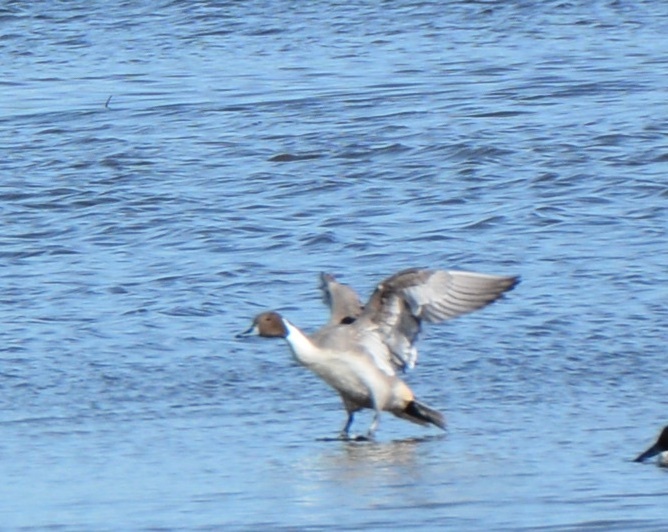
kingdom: Animalia
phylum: Chordata
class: Aves
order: Anseriformes
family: Anatidae
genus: Anas
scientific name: Anas acuta
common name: Northern pintail
